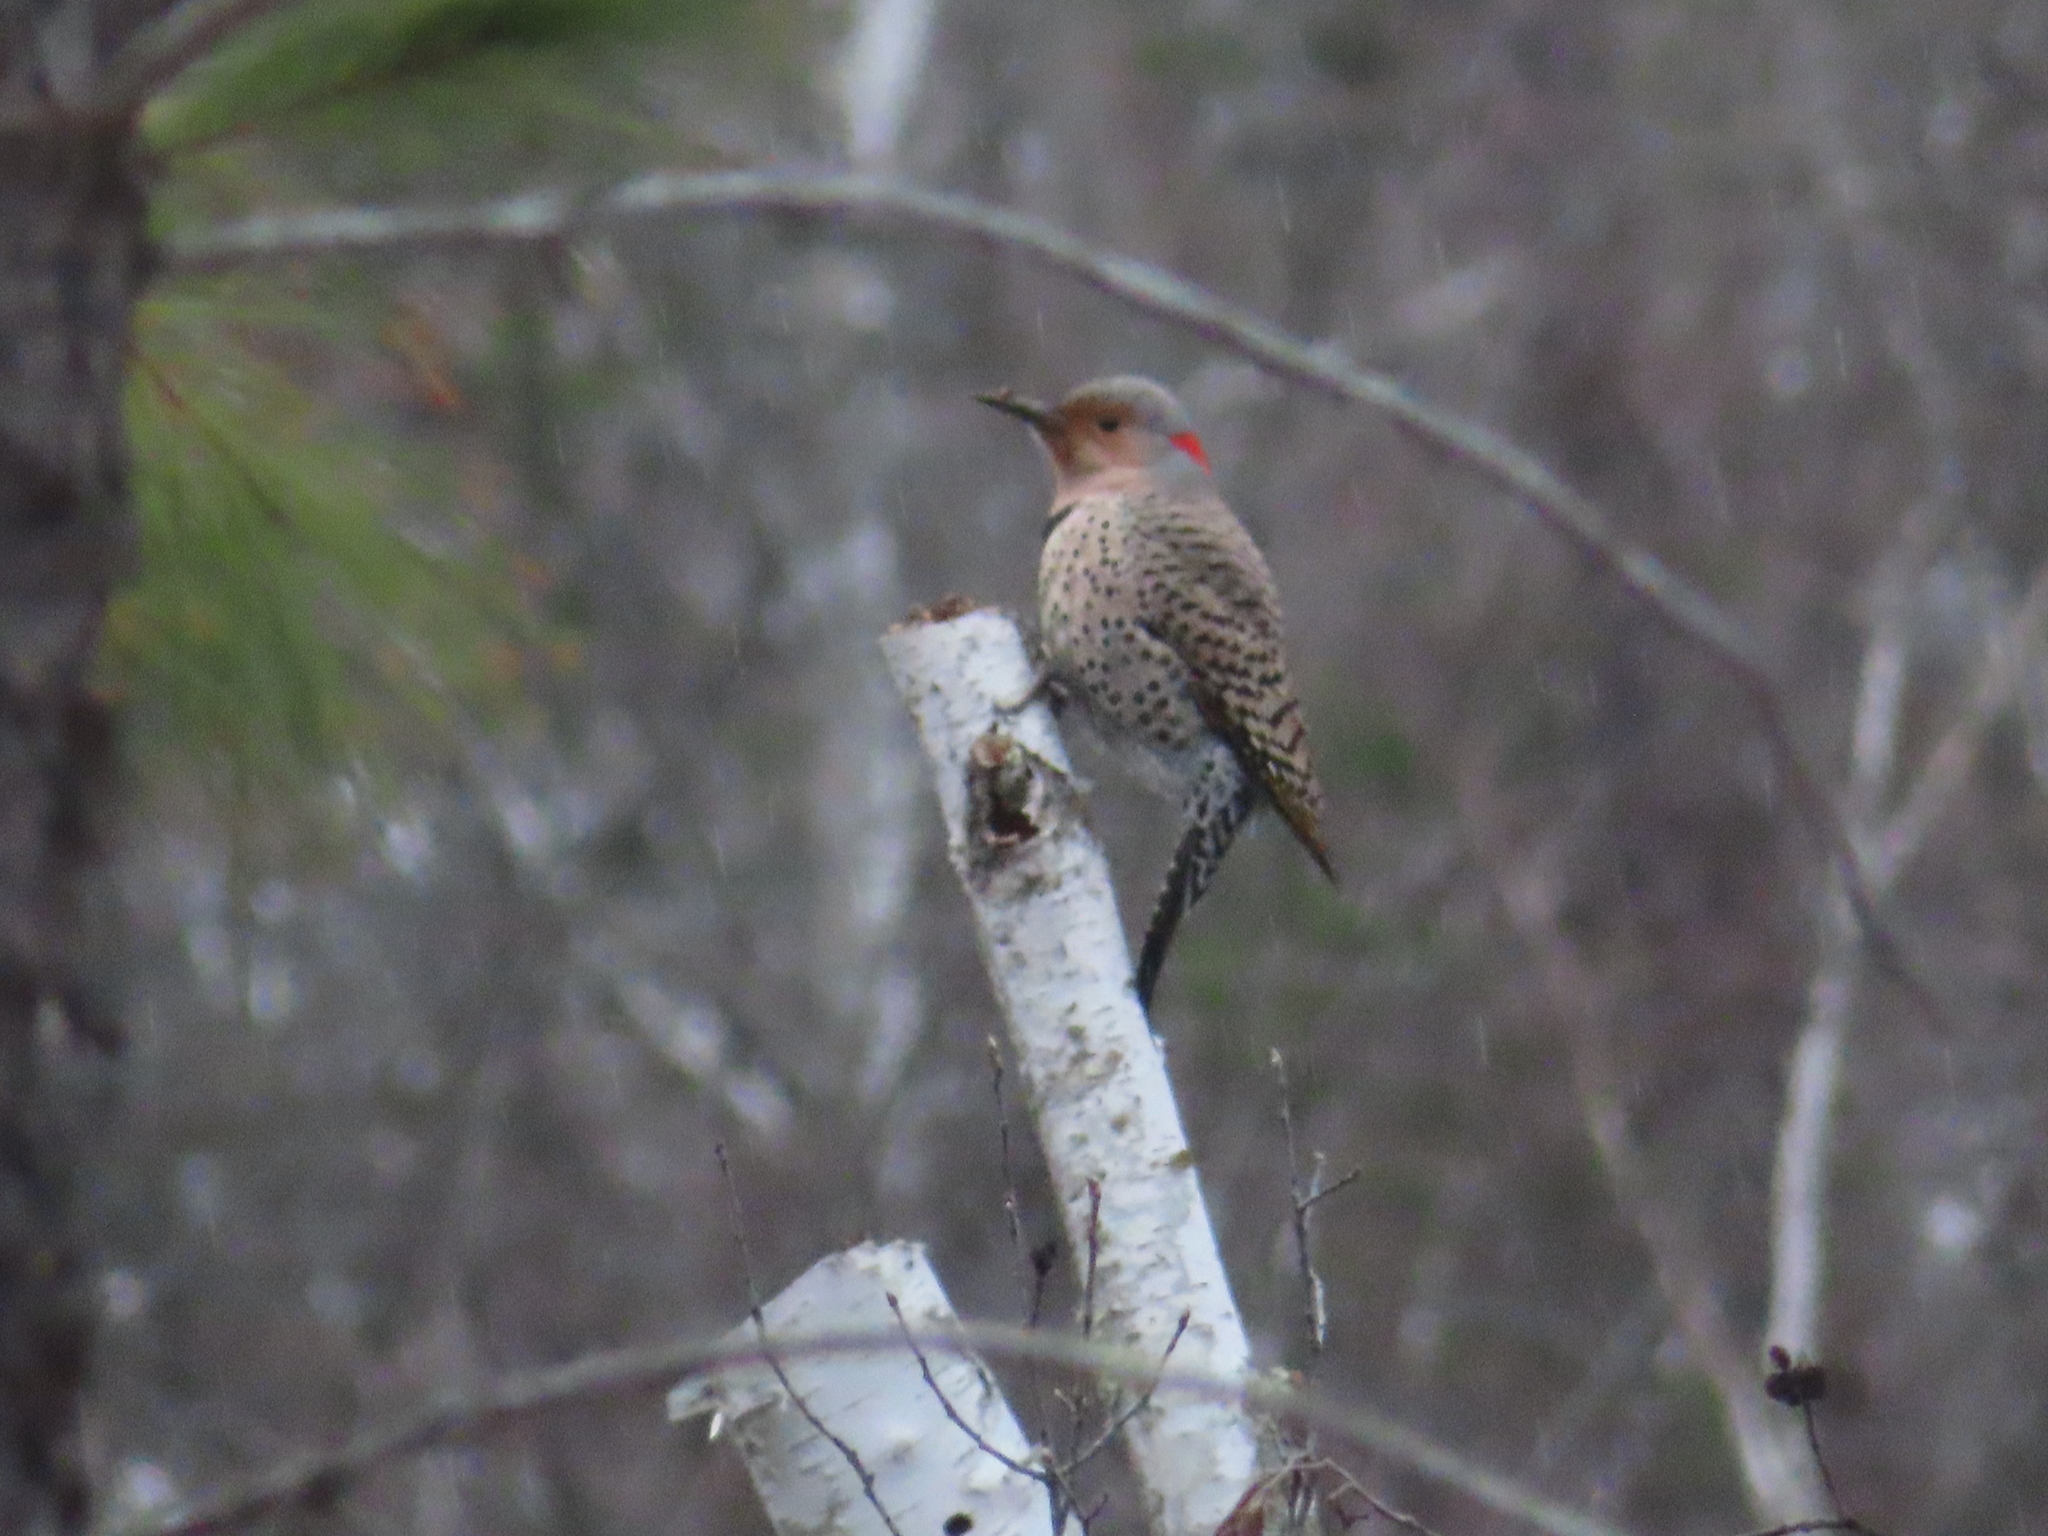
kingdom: Animalia
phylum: Chordata
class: Aves
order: Piciformes
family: Picidae
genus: Colaptes
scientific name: Colaptes auratus
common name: Northern flicker
